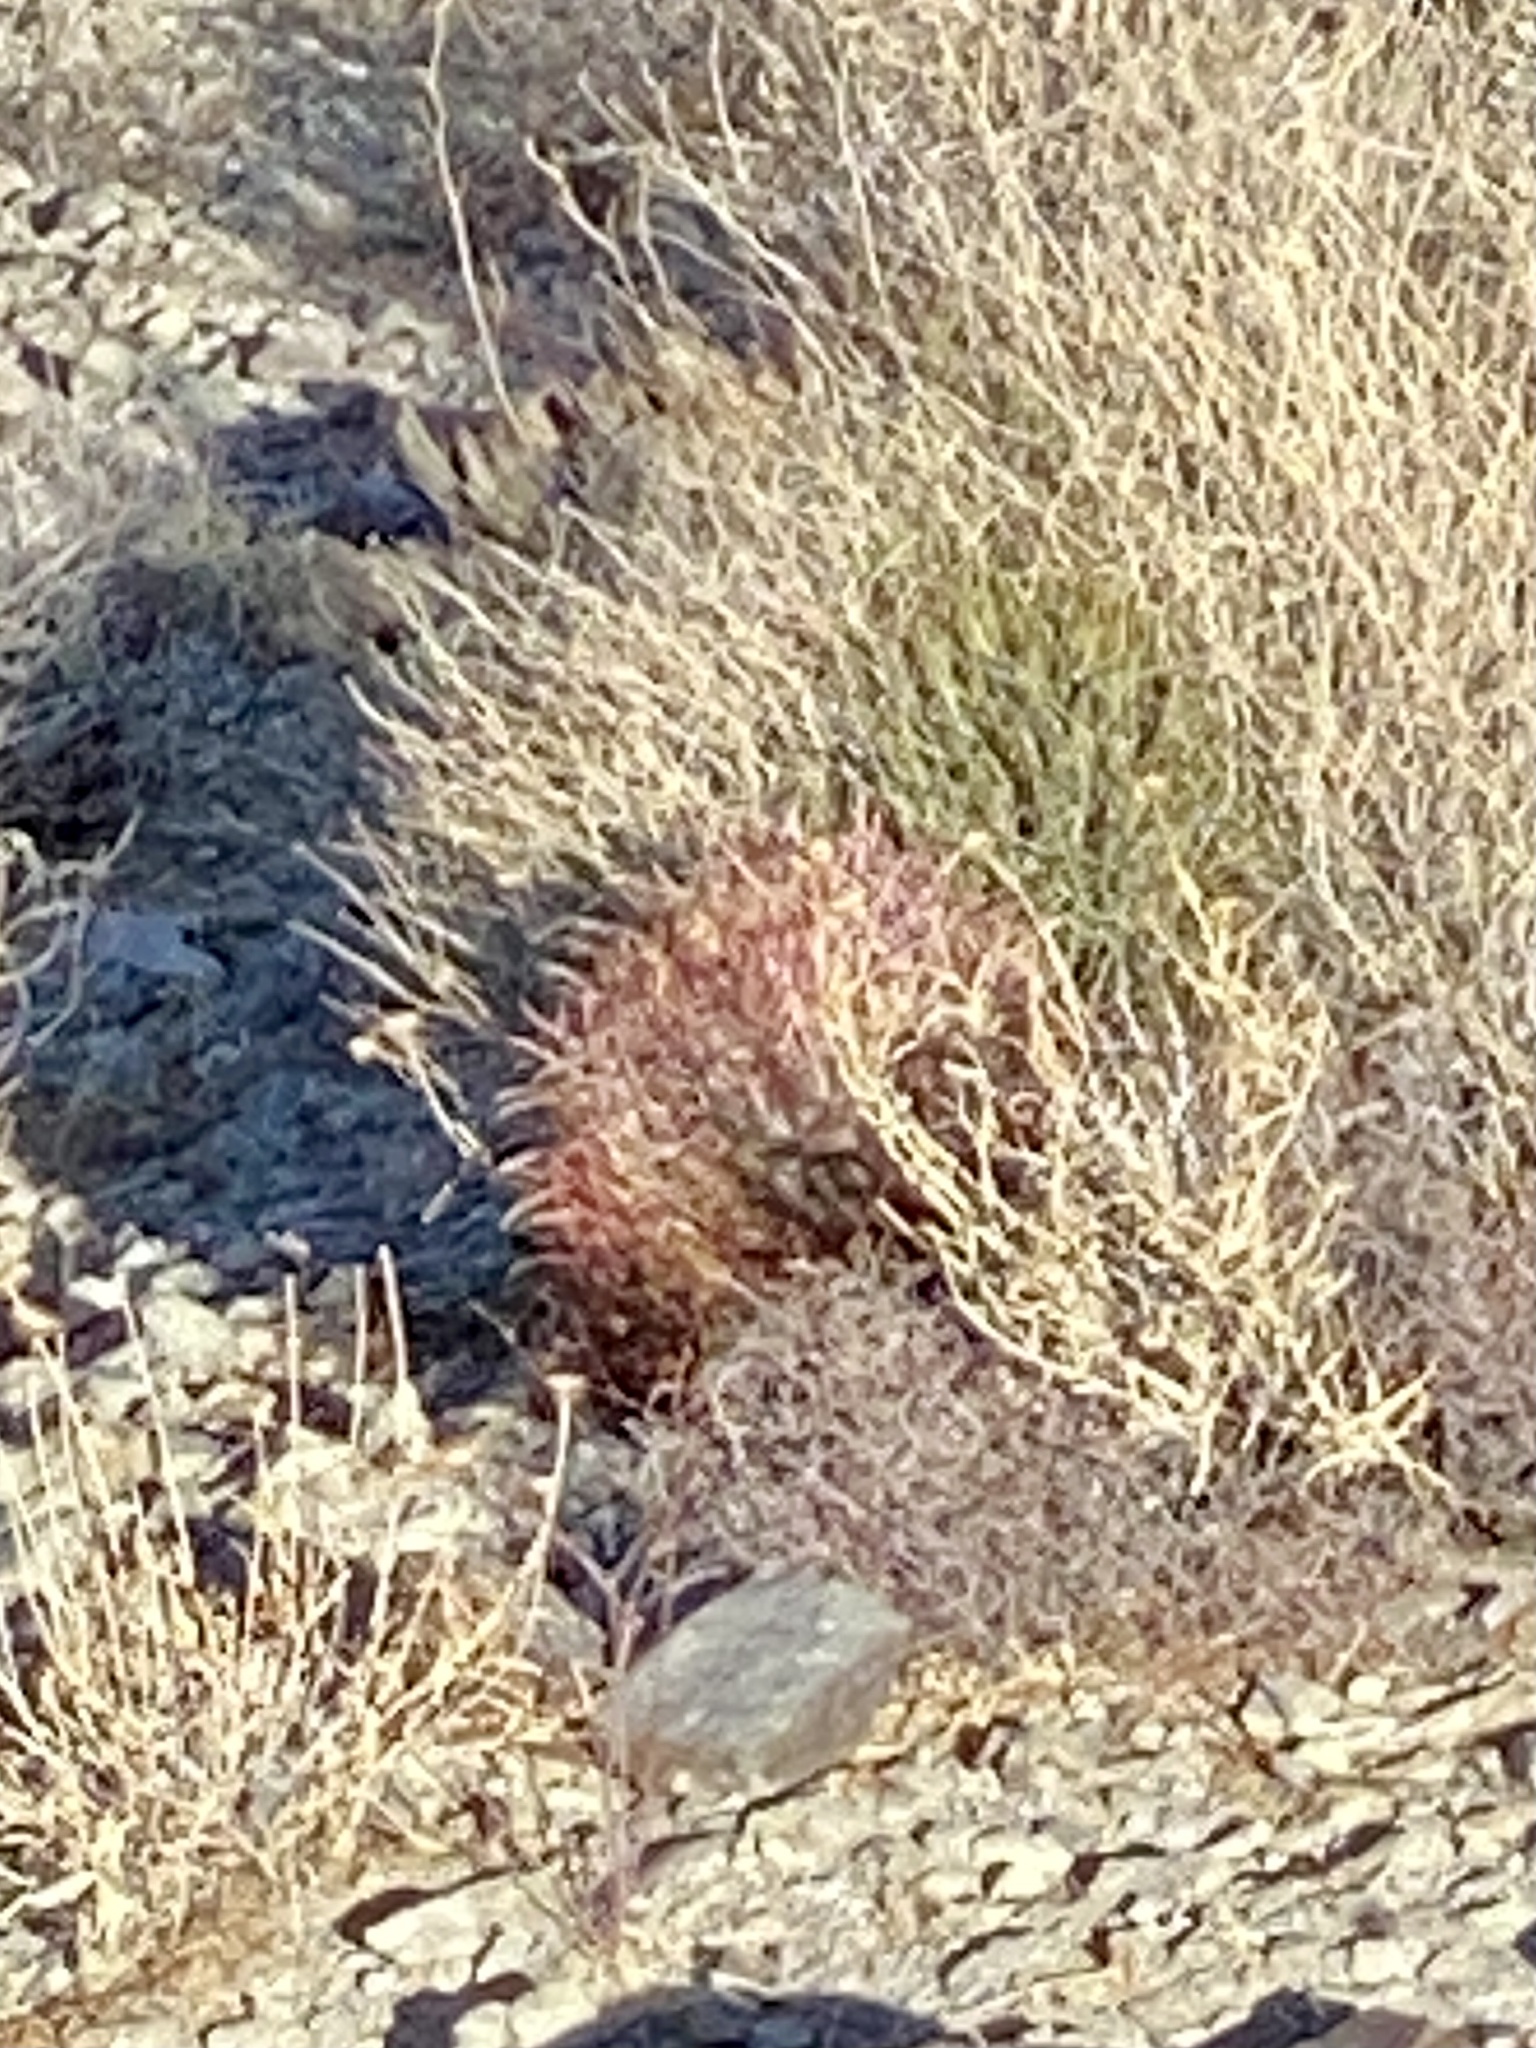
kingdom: Plantae
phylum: Tracheophyta
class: Magnoliopsida
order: Caryophyllales
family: Cactaceae
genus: Ferocactus
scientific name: Ferocactus cylindraceus
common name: California barrel cactus
